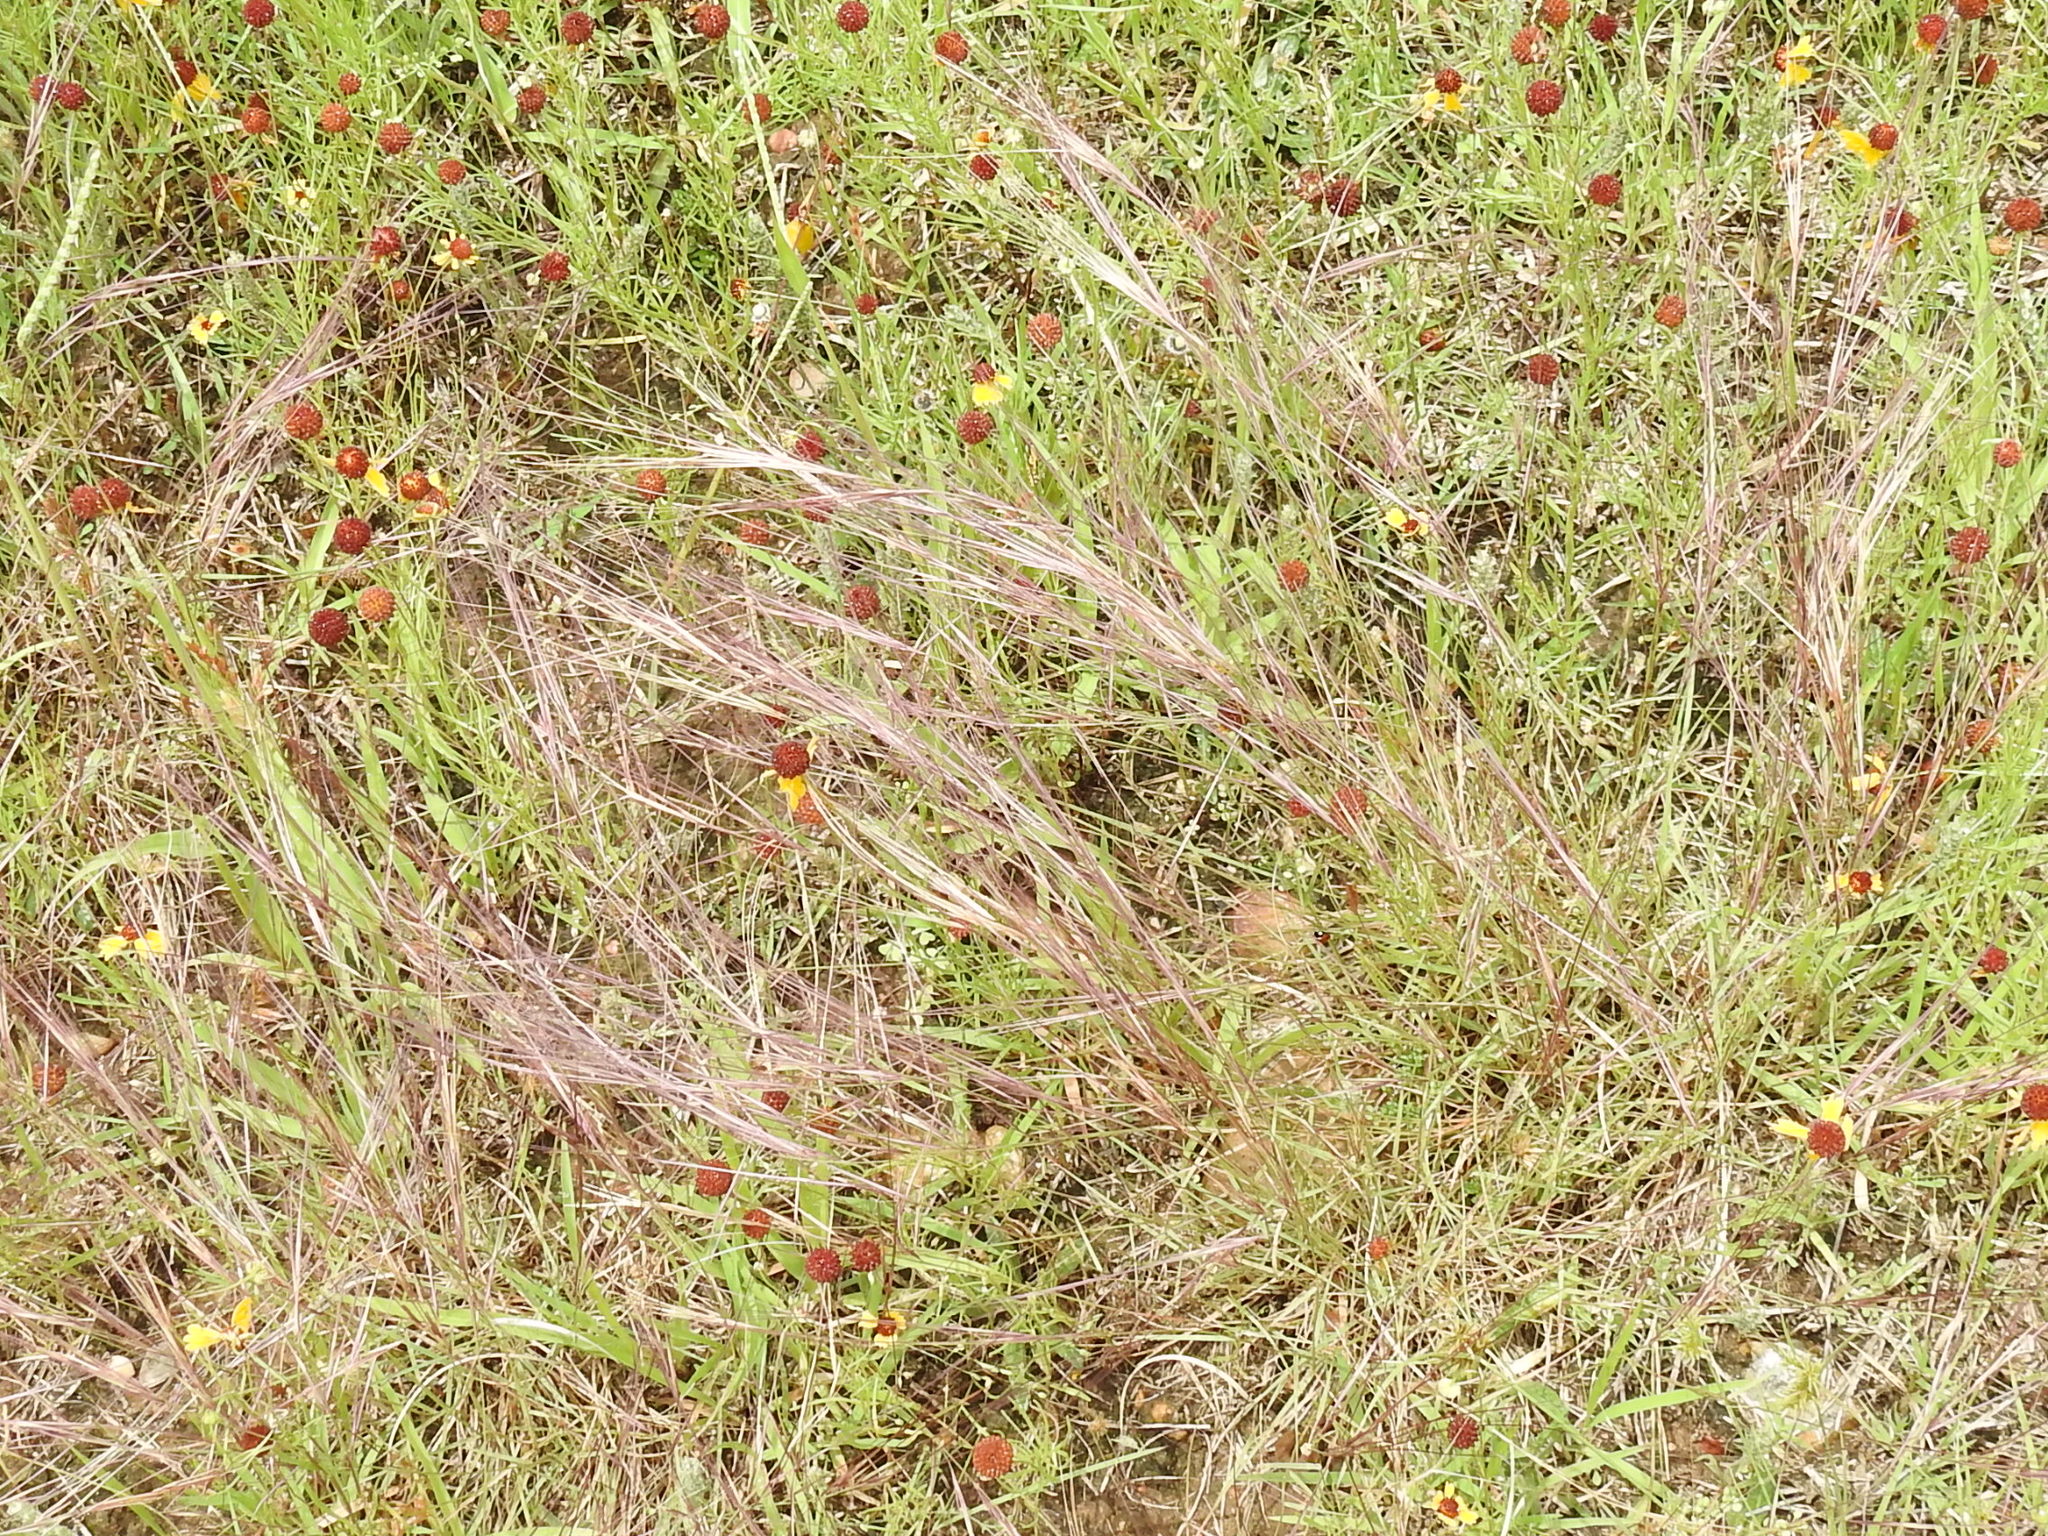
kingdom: Plantae
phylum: Tracheophyta
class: Liliopsida
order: Poales
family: Poaceae
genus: Aristida
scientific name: Aristida purpurea
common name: Purple threeawn
